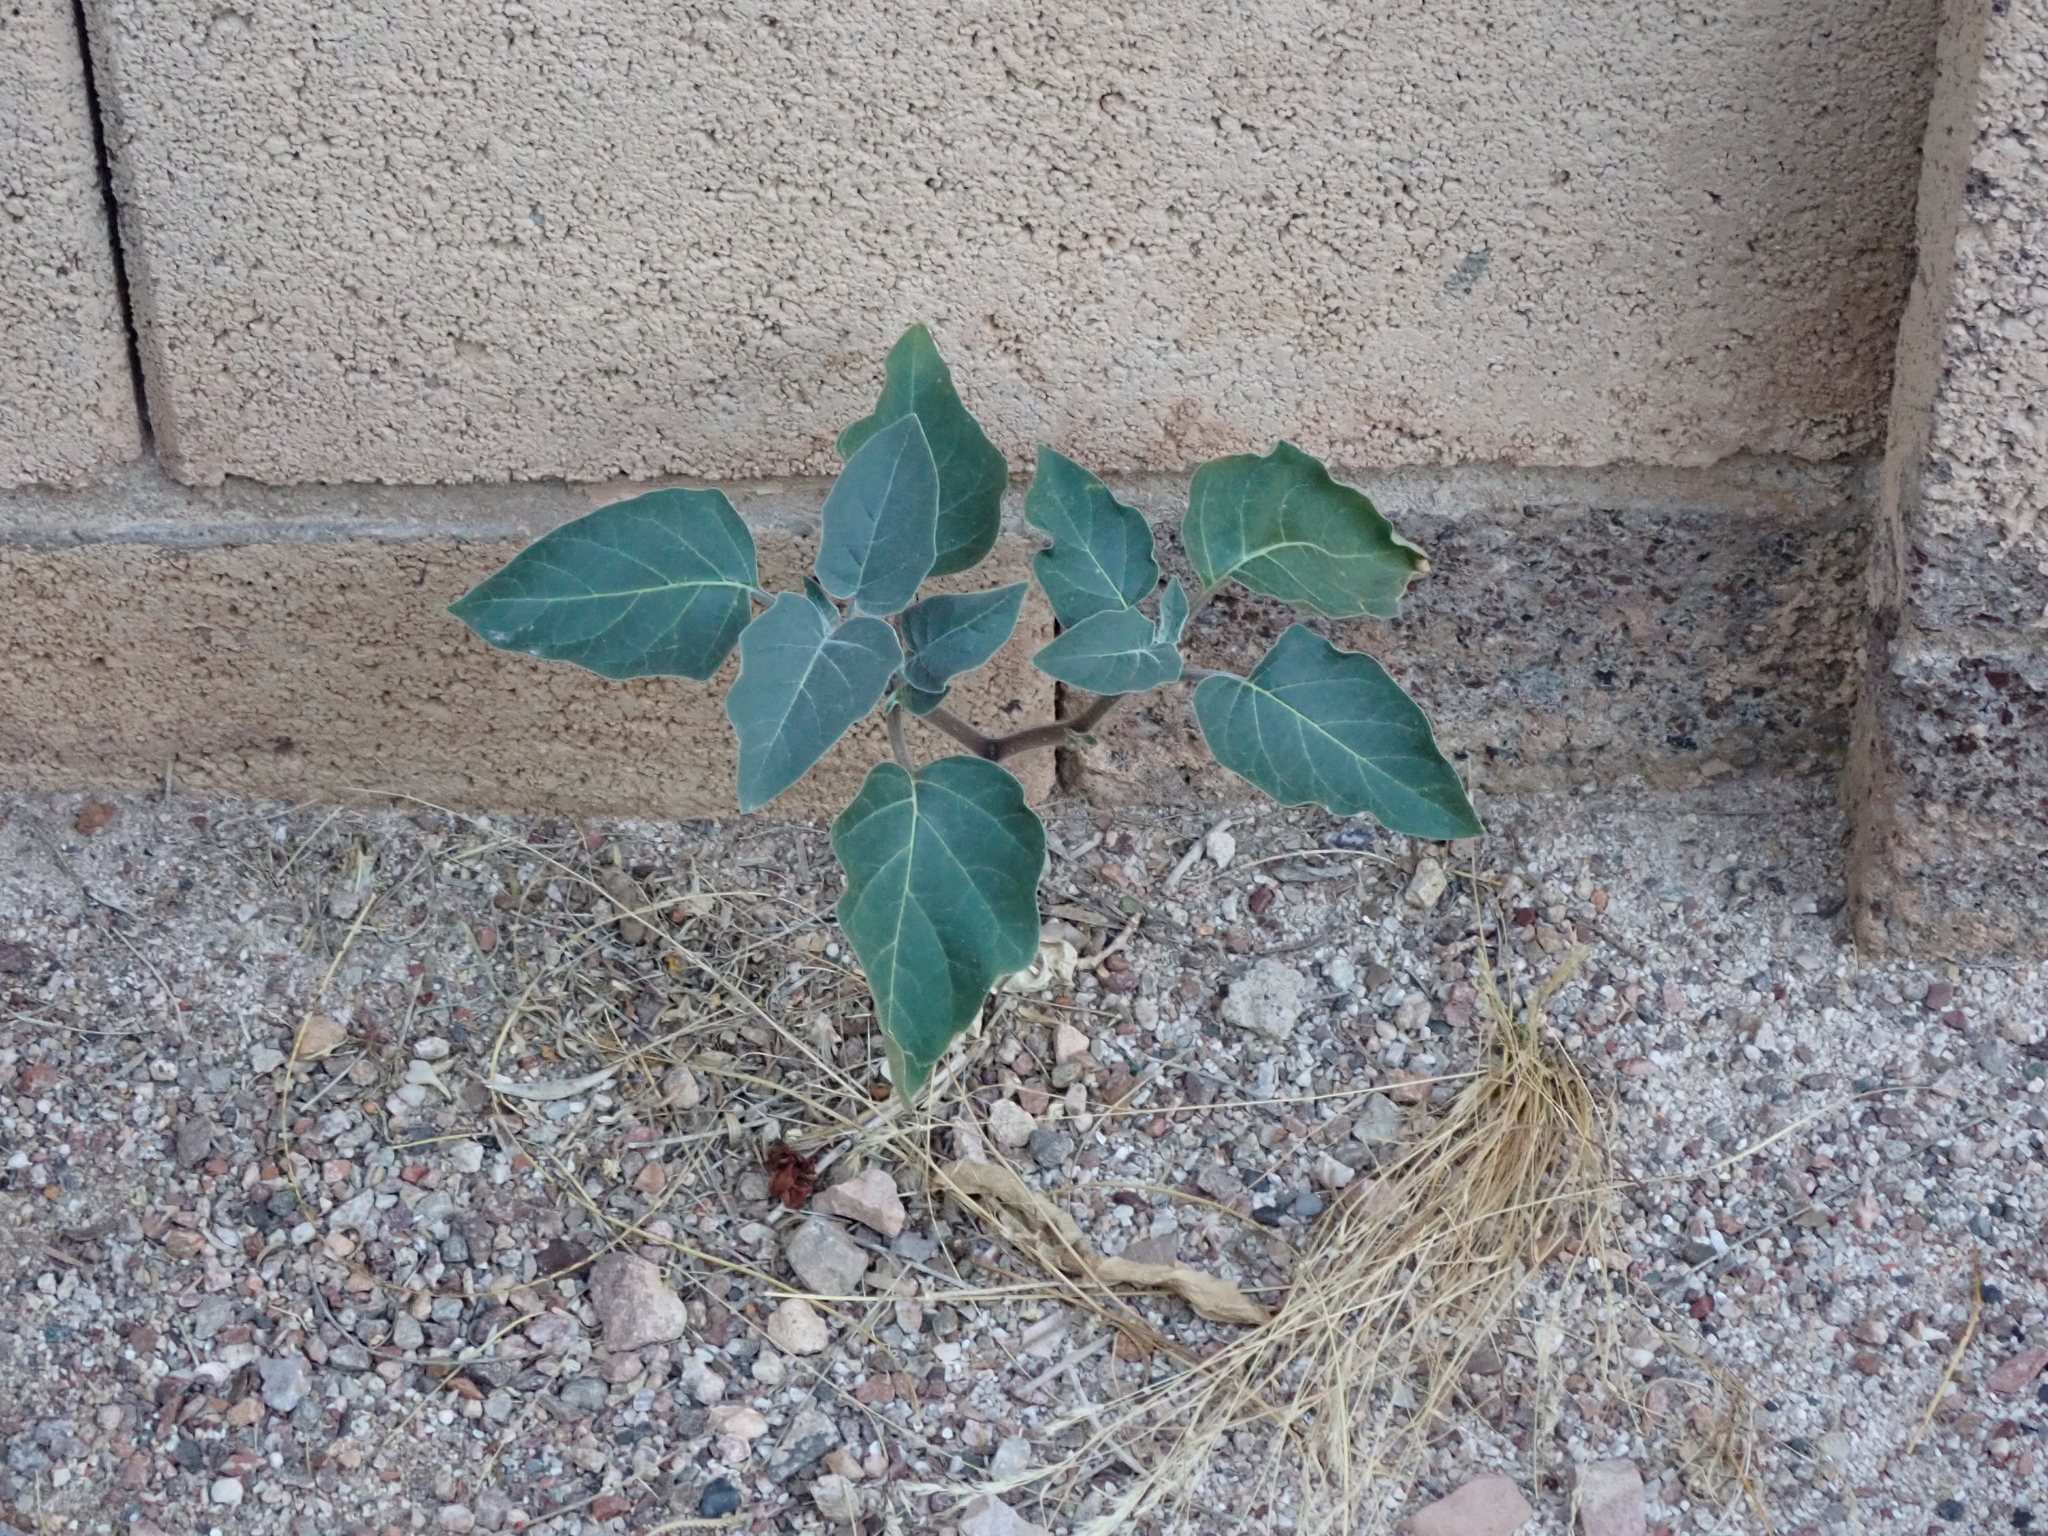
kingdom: Plantae
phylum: Tracheophyta
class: Magnoliopsida
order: Solanales
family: Solanaceae
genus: Datura
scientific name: Datura wrightii
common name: Sacred thorn-apple
